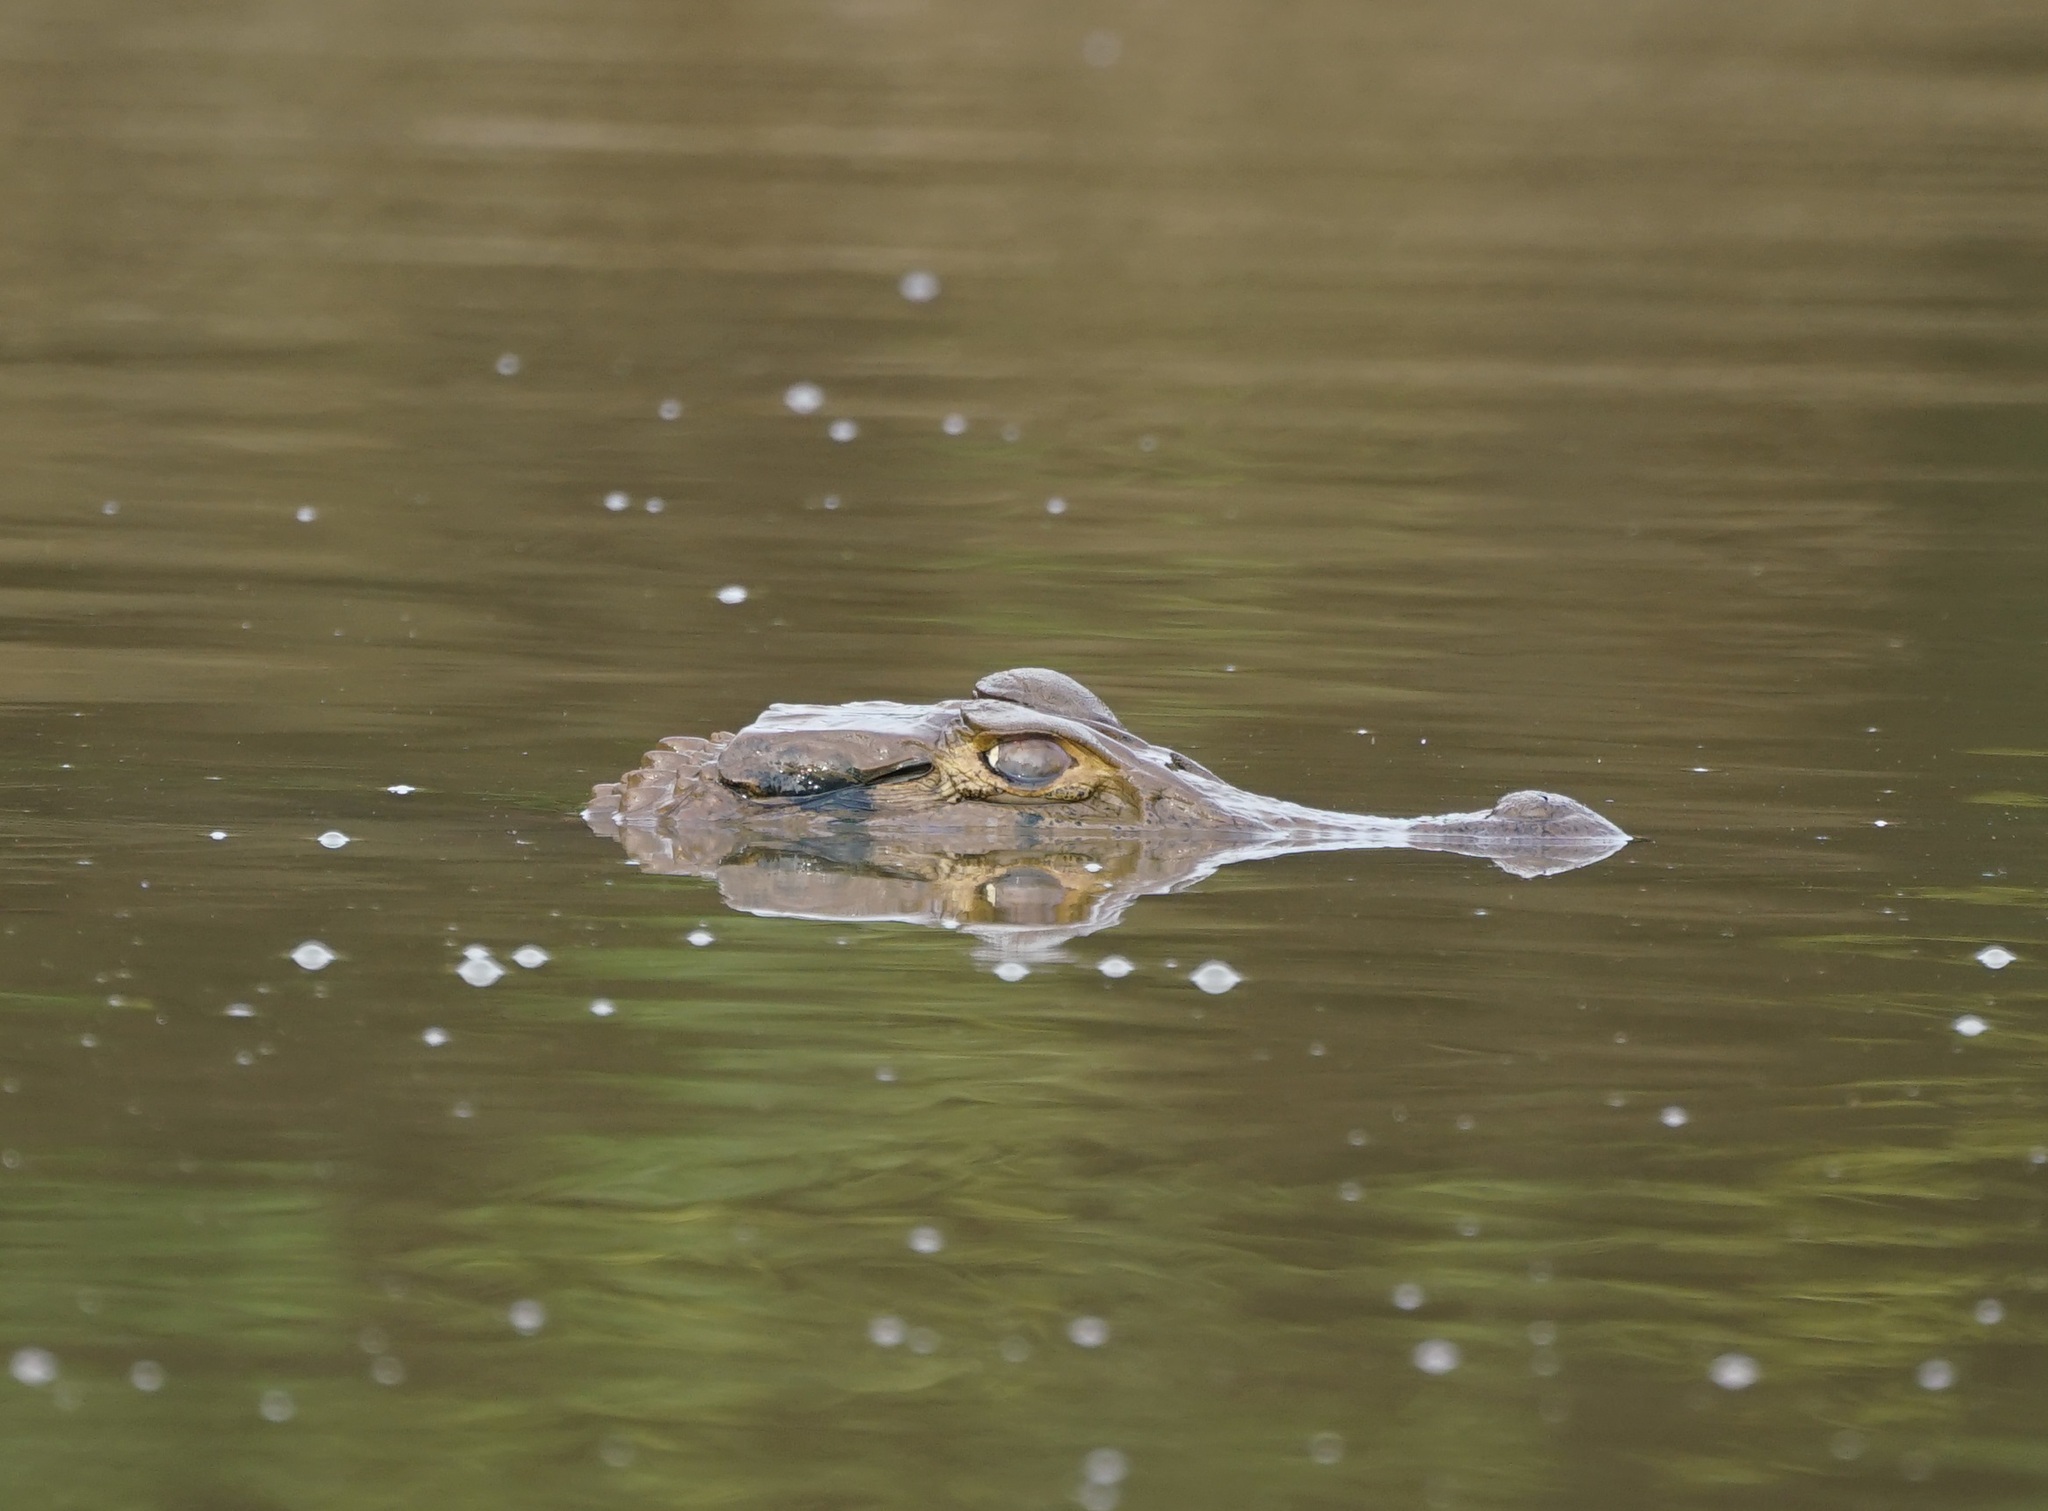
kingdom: Animalia
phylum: Chordata
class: Crocodylia
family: Alligatoridae
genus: Melanosuchus
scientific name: Melanosuchus niger
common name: Black caiman
